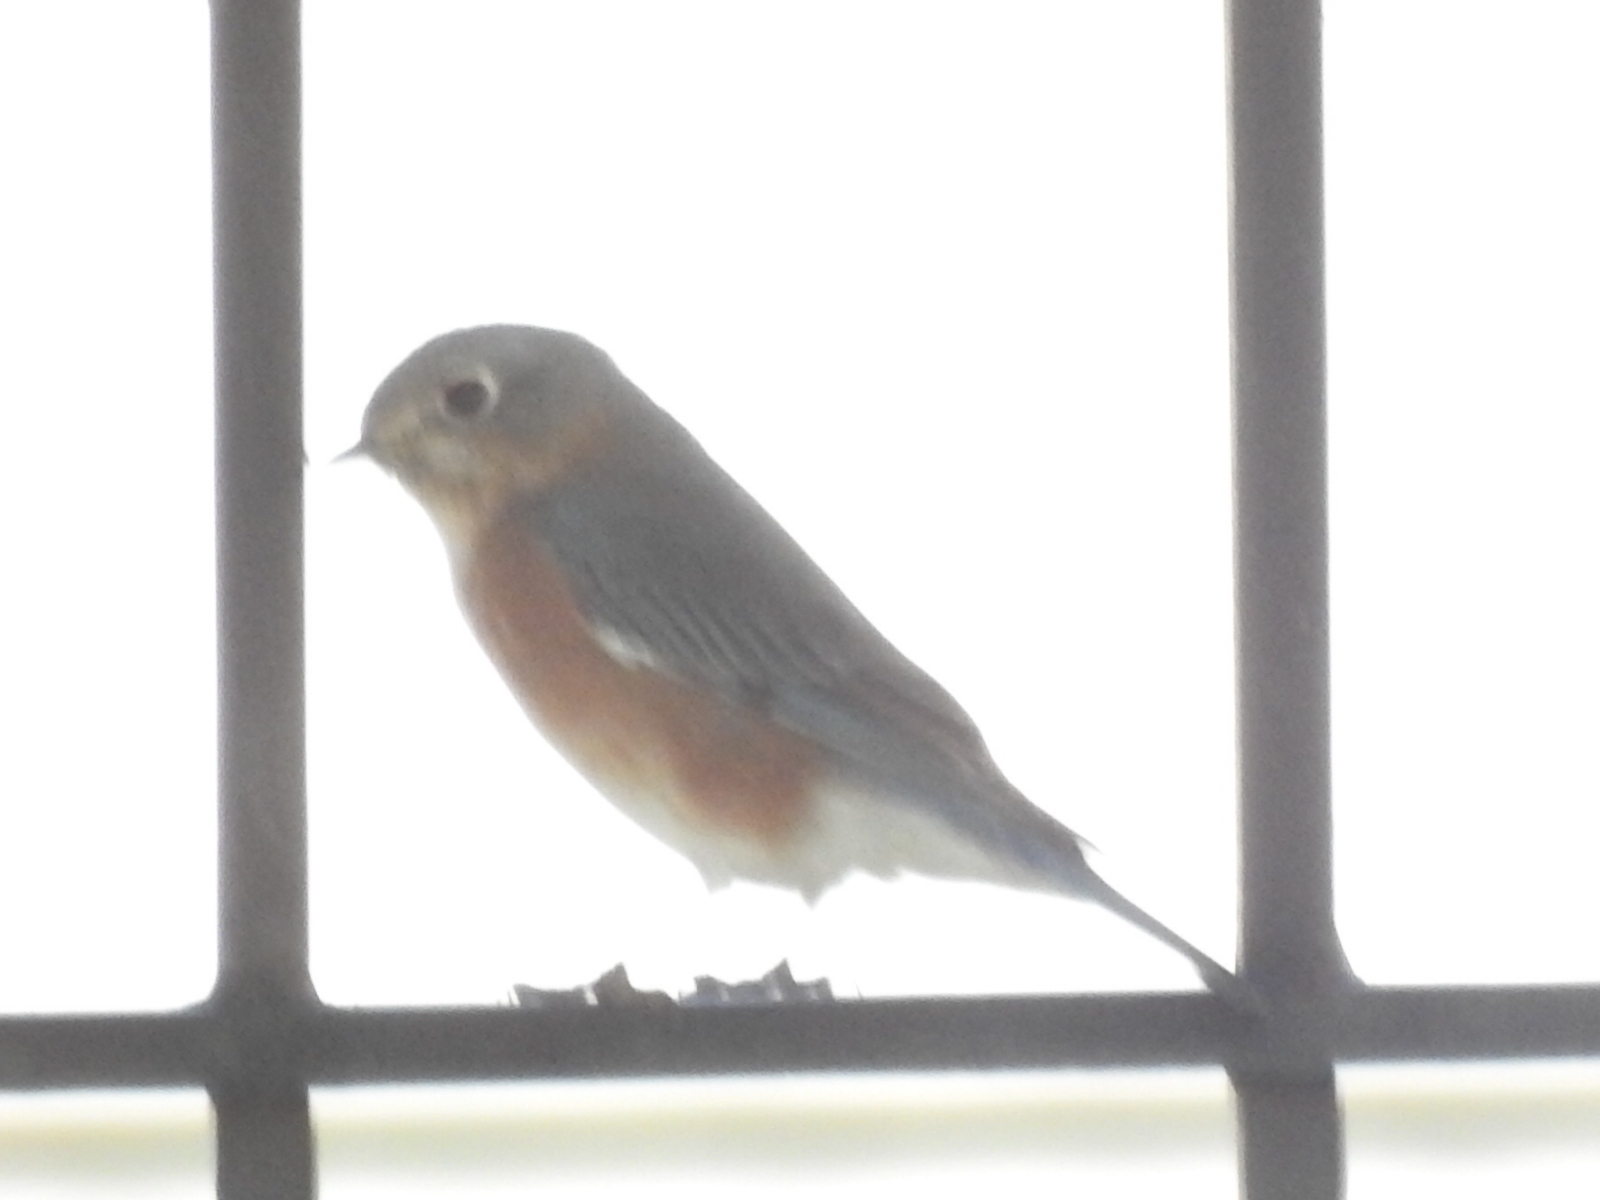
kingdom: Animalia
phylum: Chordata
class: Aves
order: Passeriformes
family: Turdidae
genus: Sialia
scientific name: Sialia sialis
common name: Eastern bluebird
